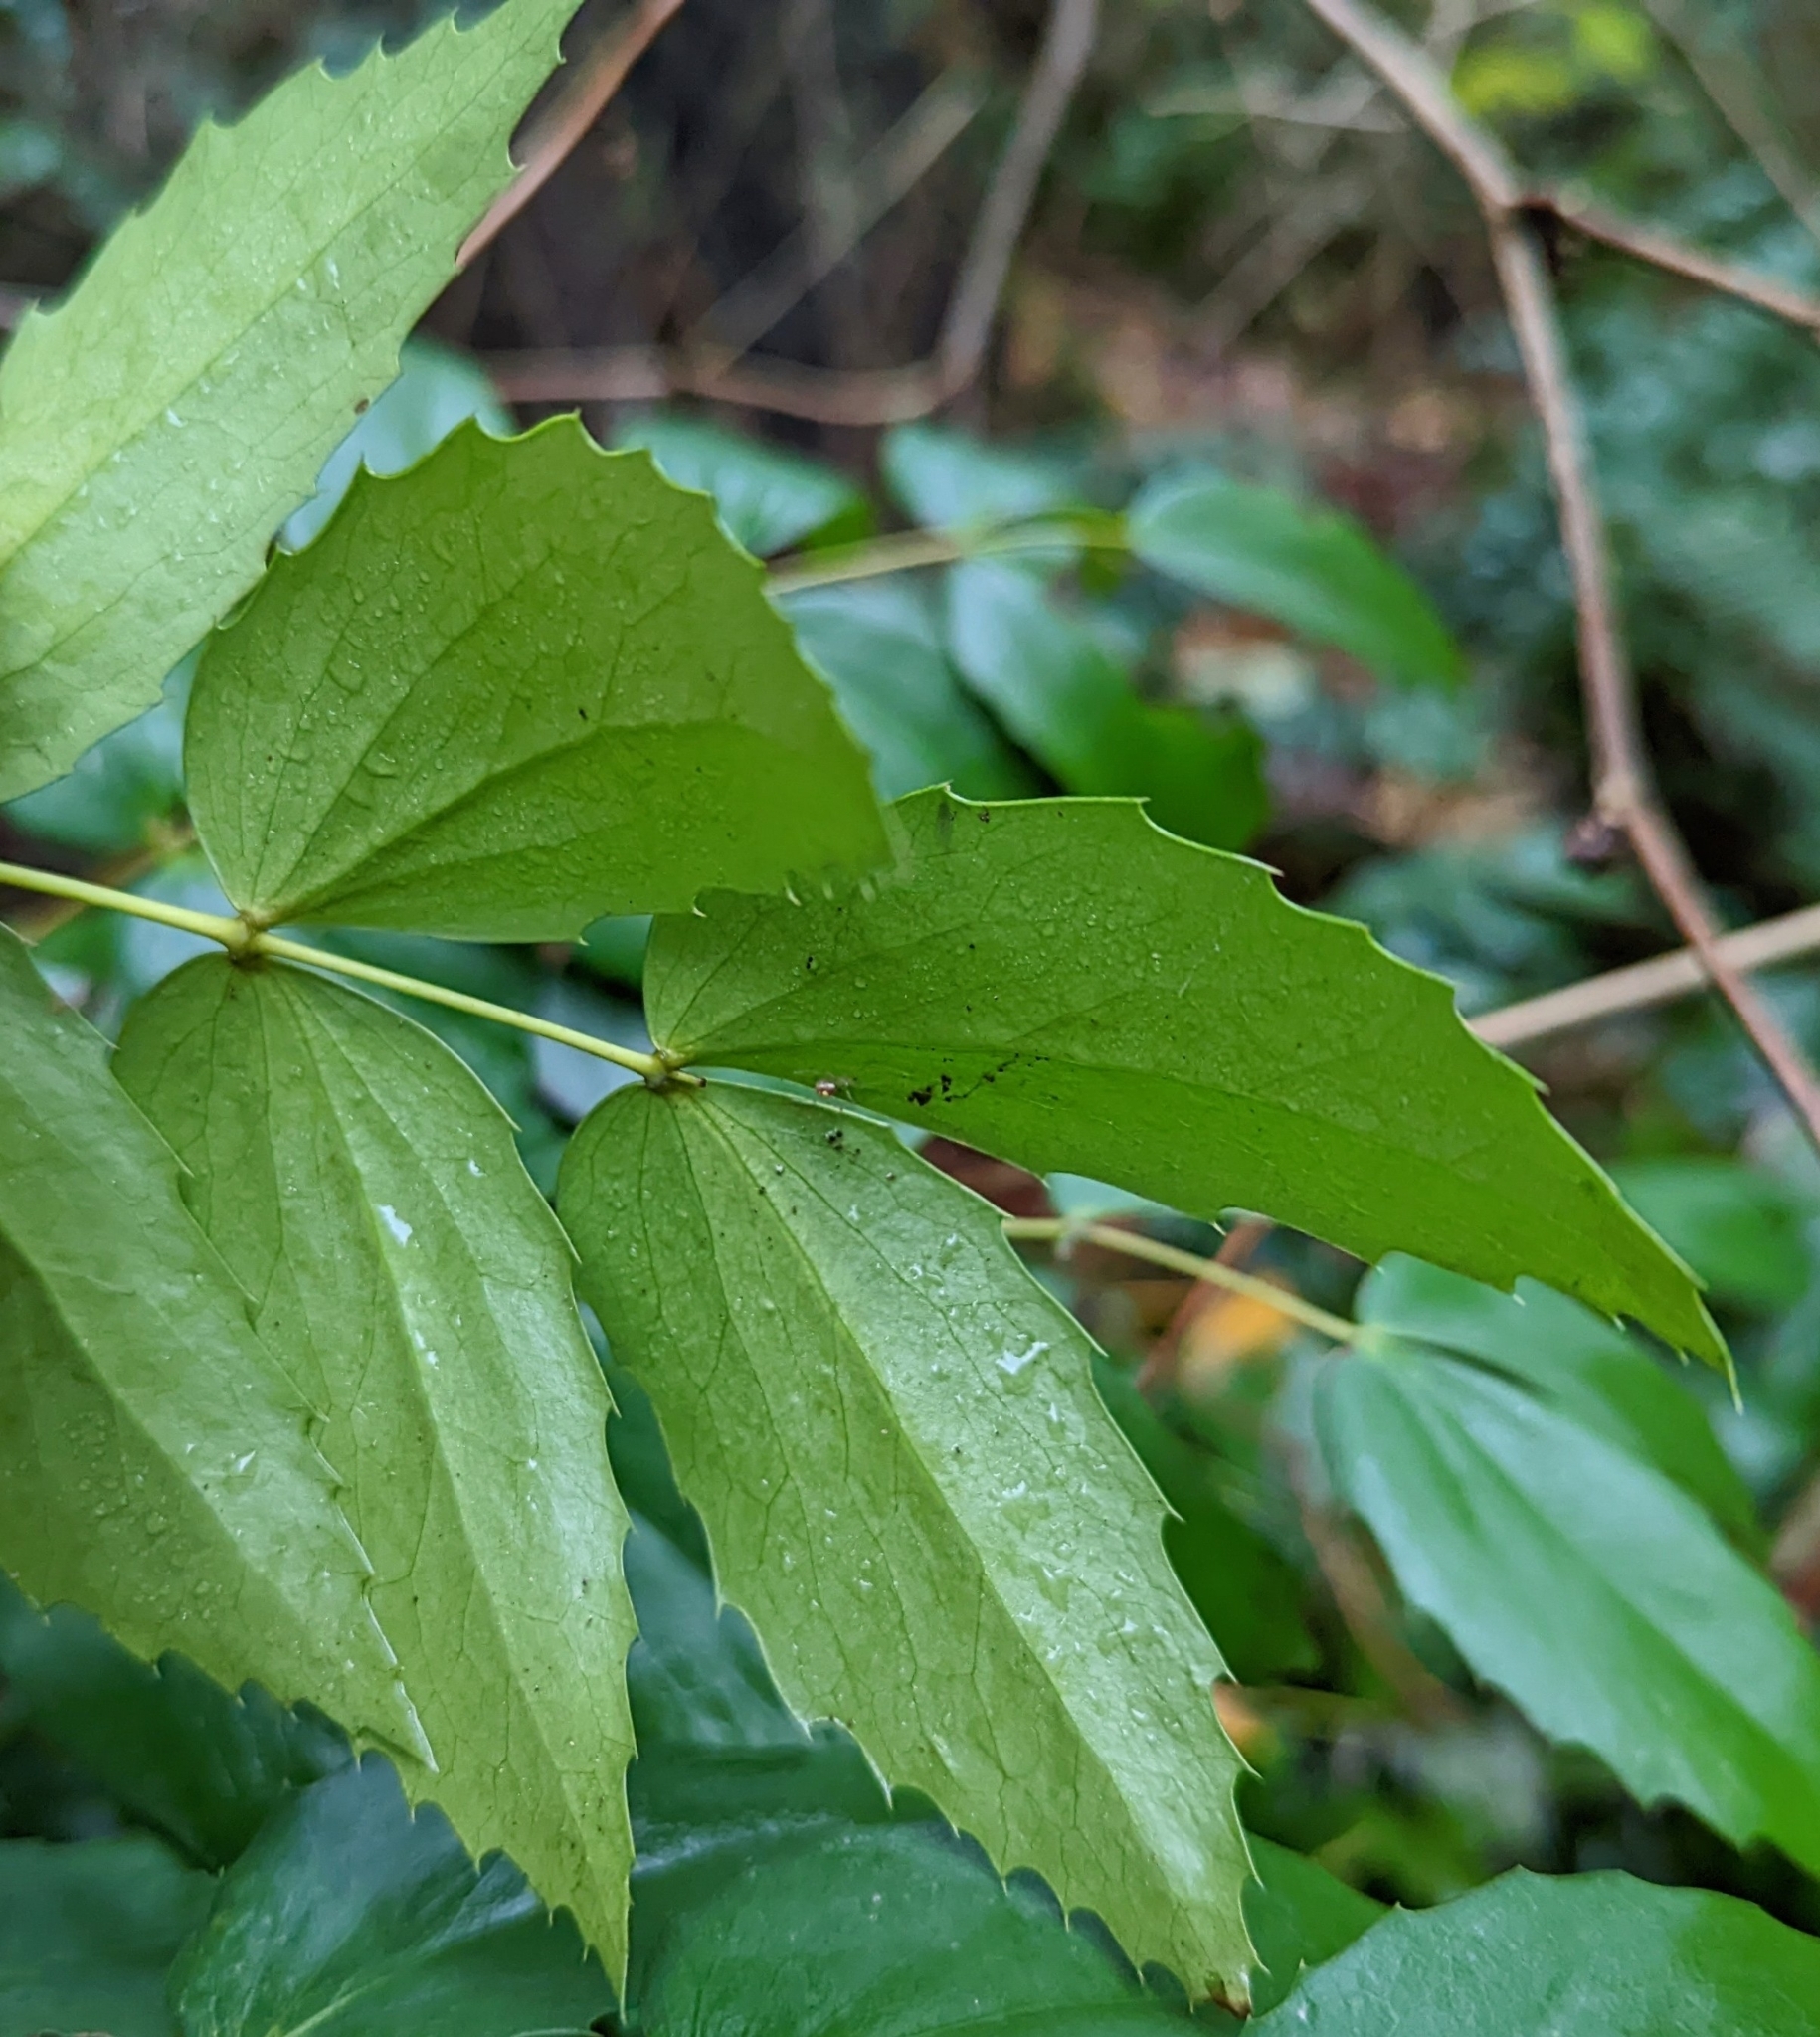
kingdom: Plantae
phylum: Tracheophyta
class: Magnoliopsida
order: Ranunculales
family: Berberidaceae
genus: Mahonia
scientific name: Mahonia nervosa
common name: Cascade oregon-grape
